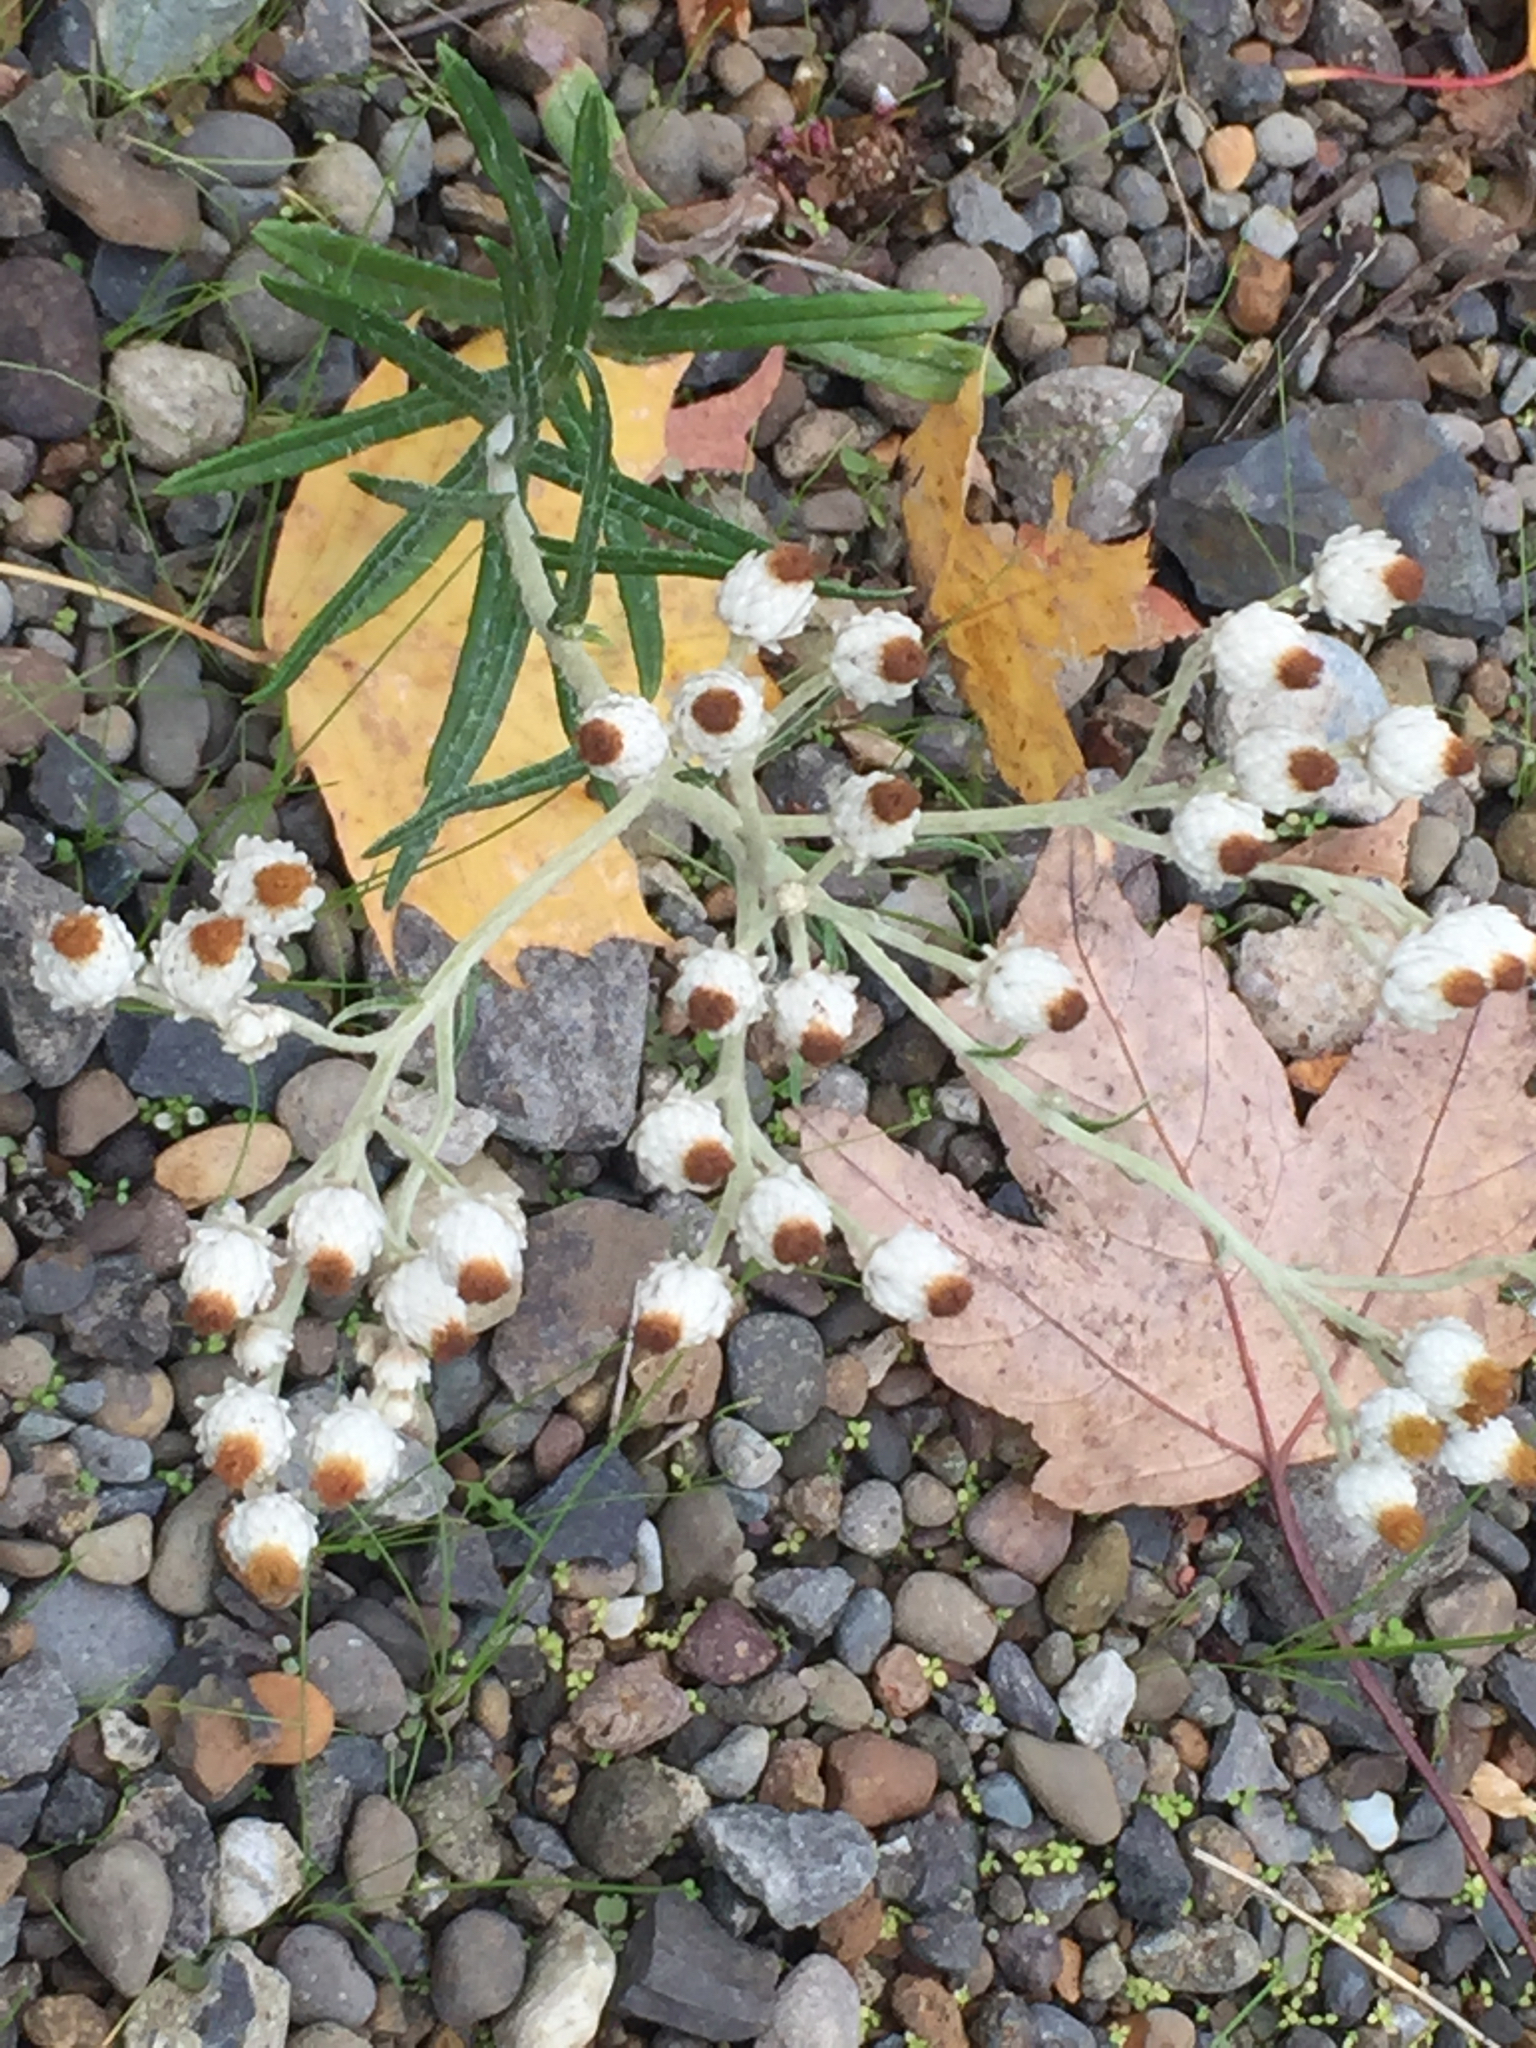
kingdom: Plantae
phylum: Tracheophyta
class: Magnoliopsida
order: Asterales
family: Asteraceae
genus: Anaphalis
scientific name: Anaphalis margaritacea
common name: Pearly everlasting
